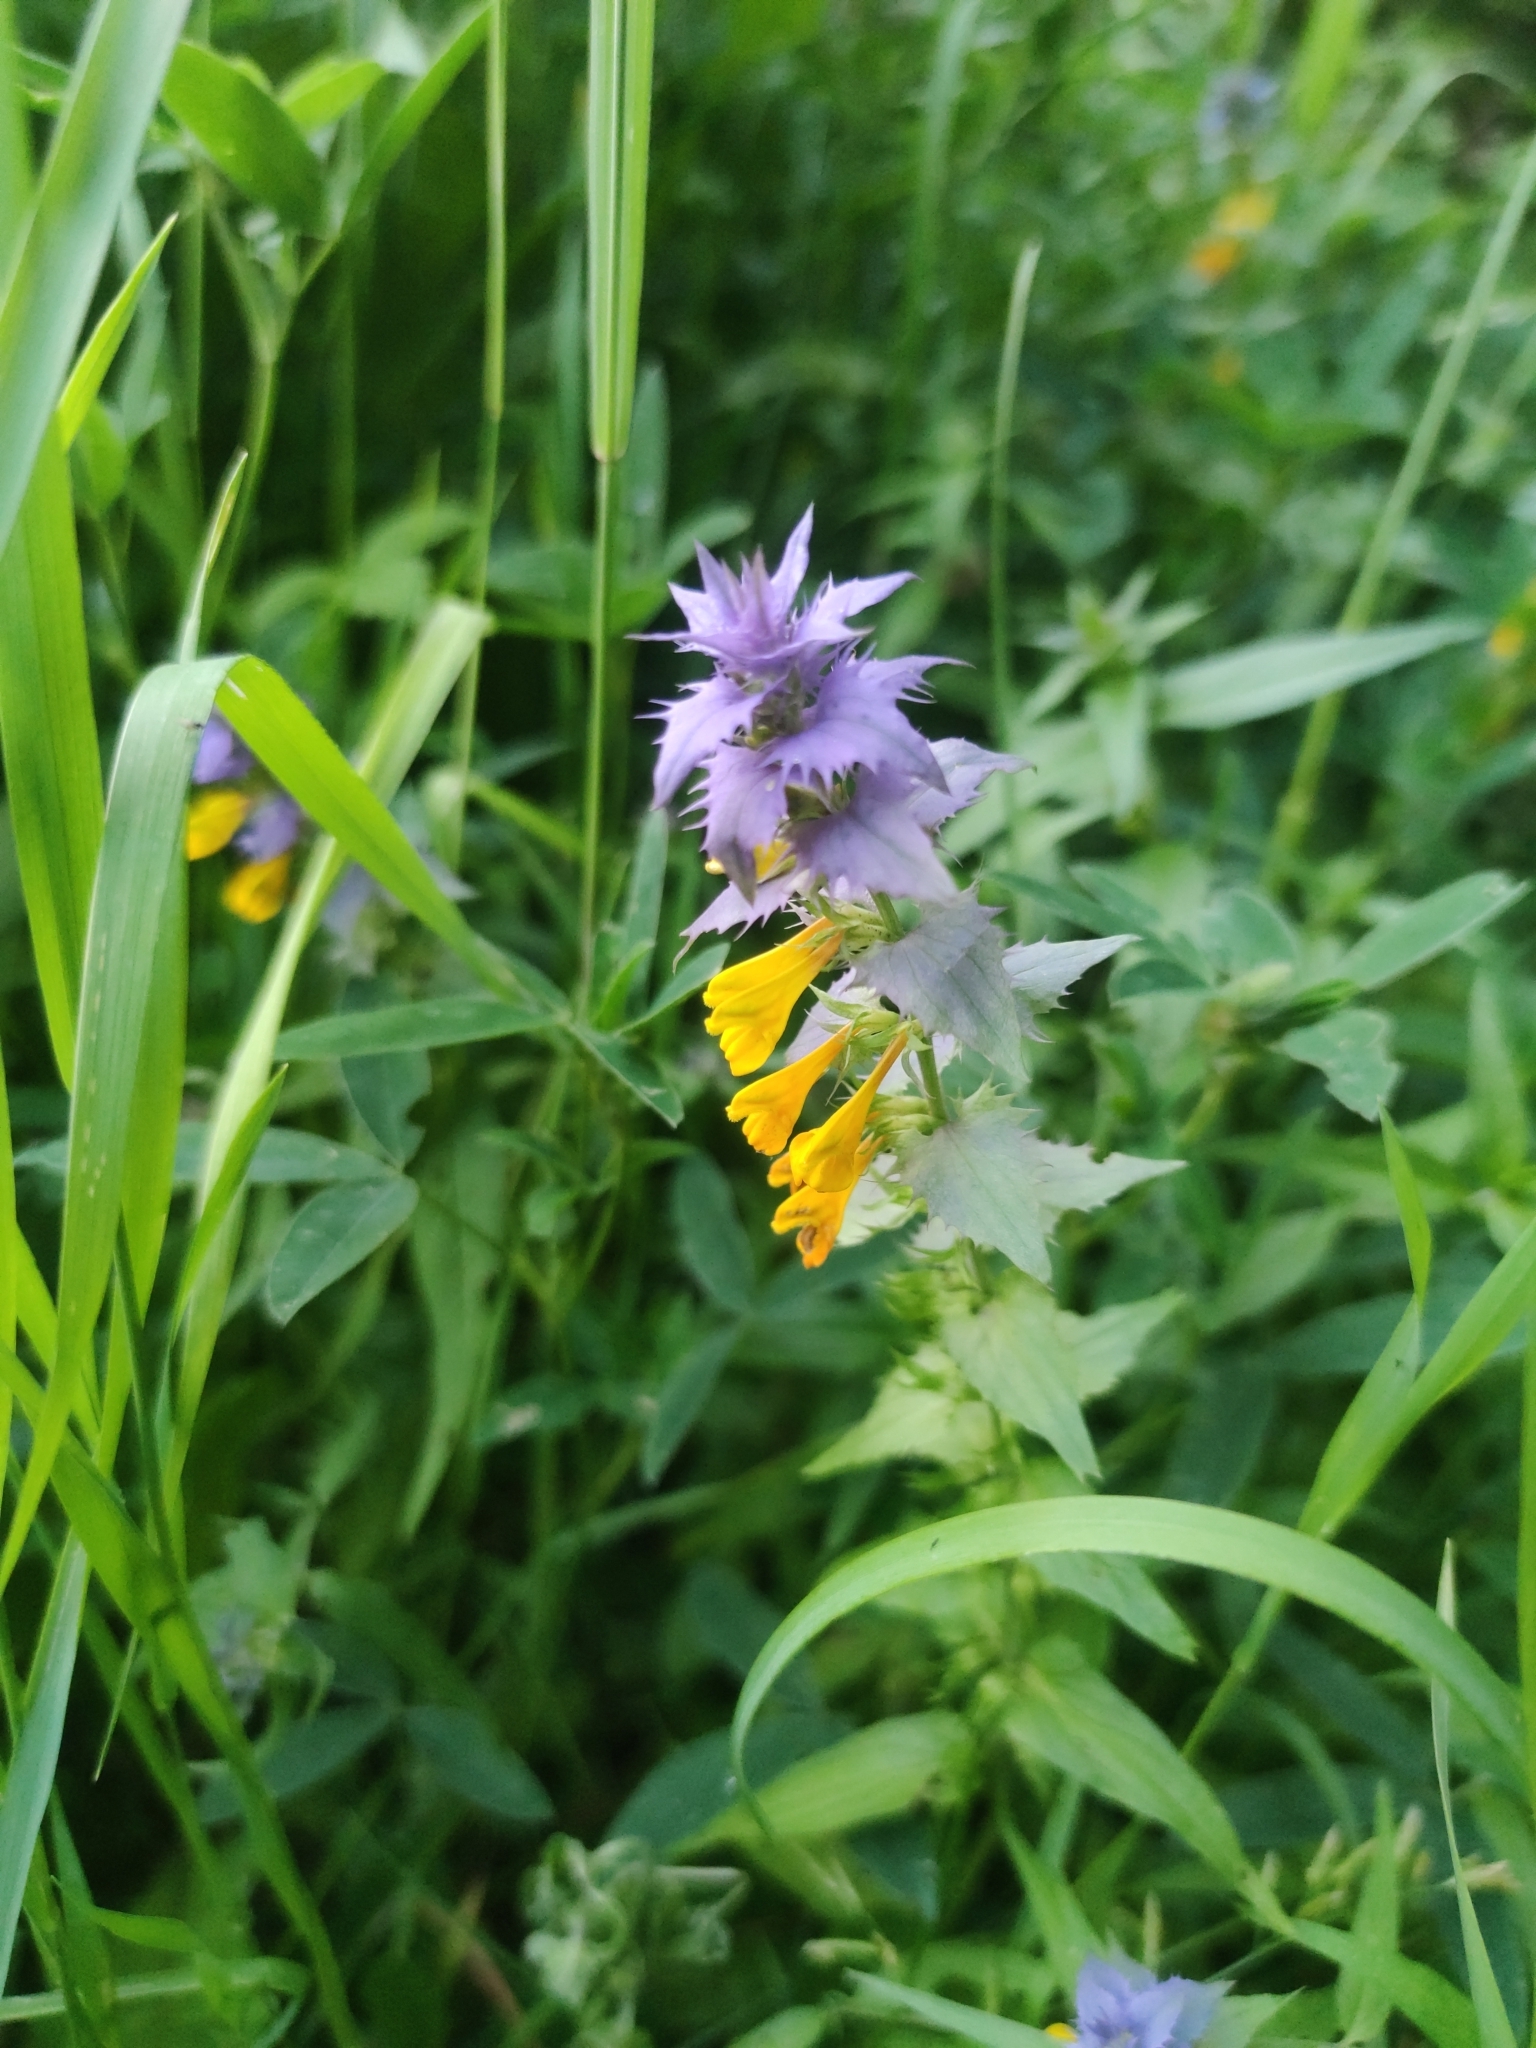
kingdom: Plantae
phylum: Tracheophyta
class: Magnoliopsida
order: Lamiales
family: Orobanchaceae
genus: Melampyrum
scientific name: Melampyrum nemorosum
